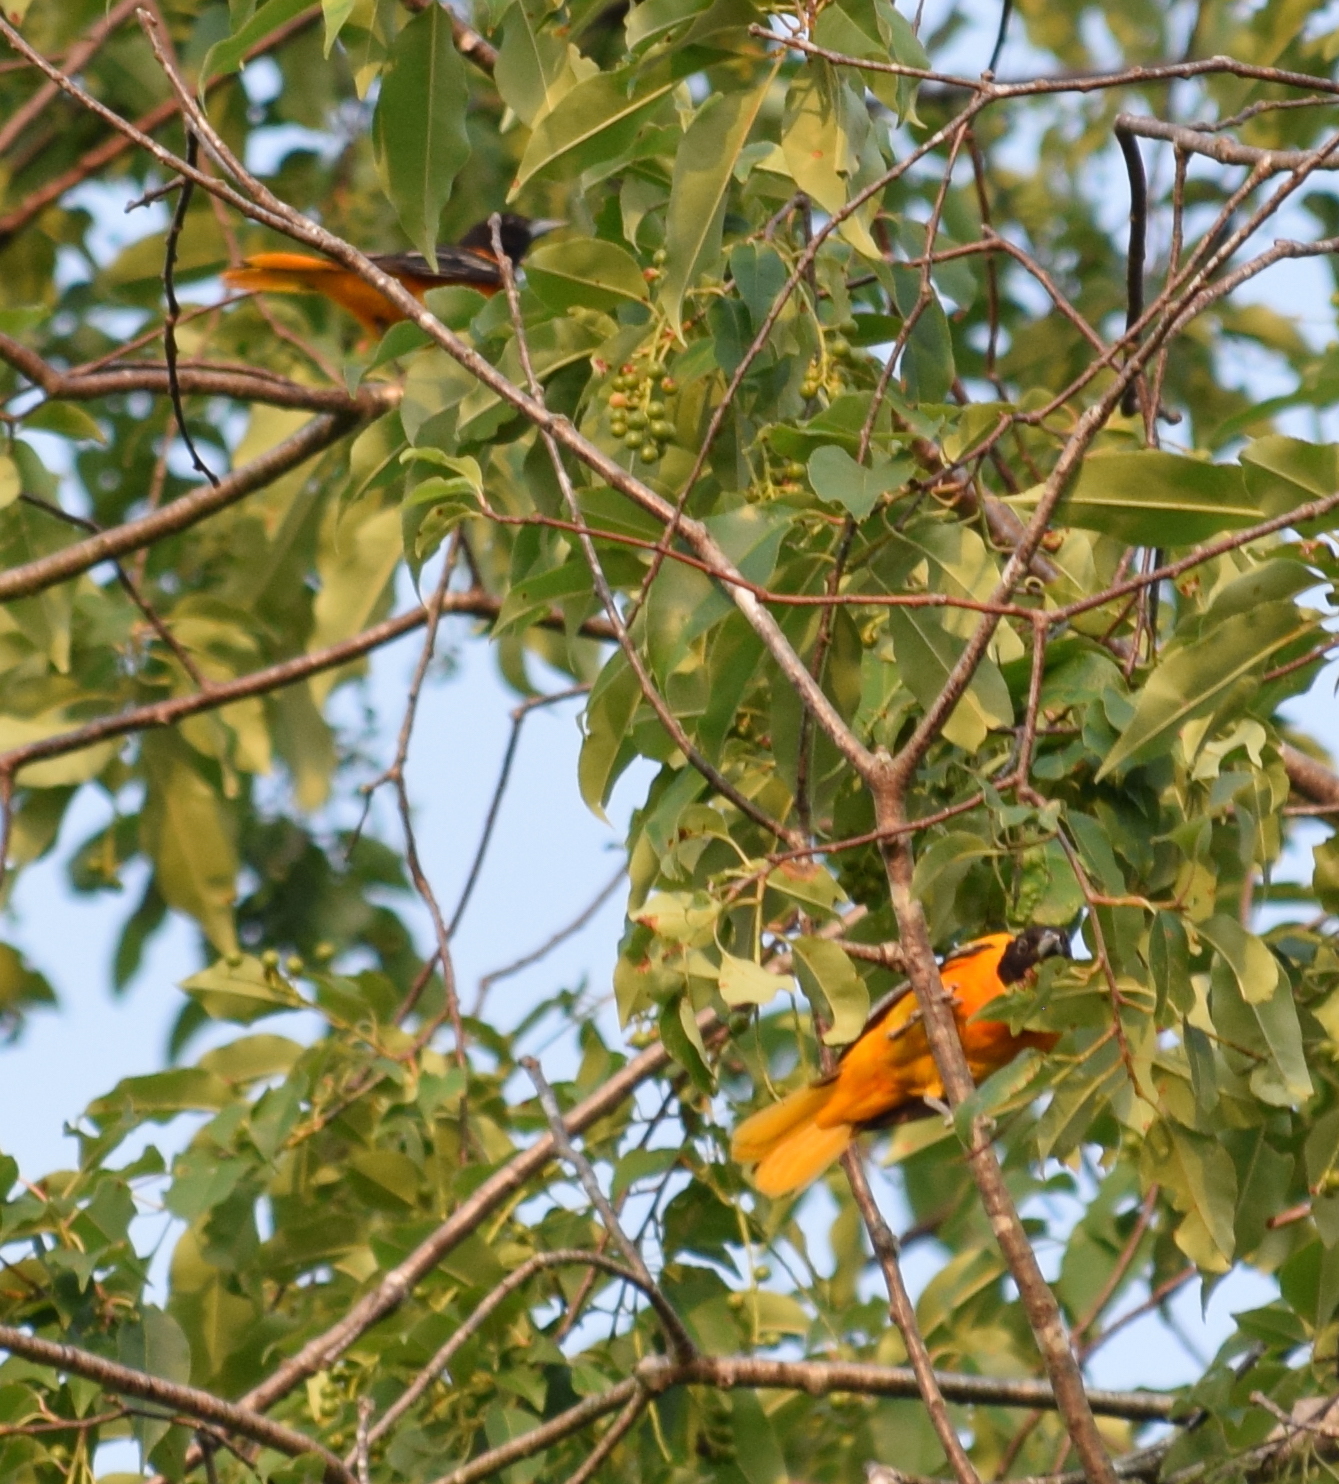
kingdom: Animalia
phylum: Chordata
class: Aves
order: Passeriformes
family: Icteridae
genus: Icterus
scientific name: Icterus galbula
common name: Baltimore oriole
